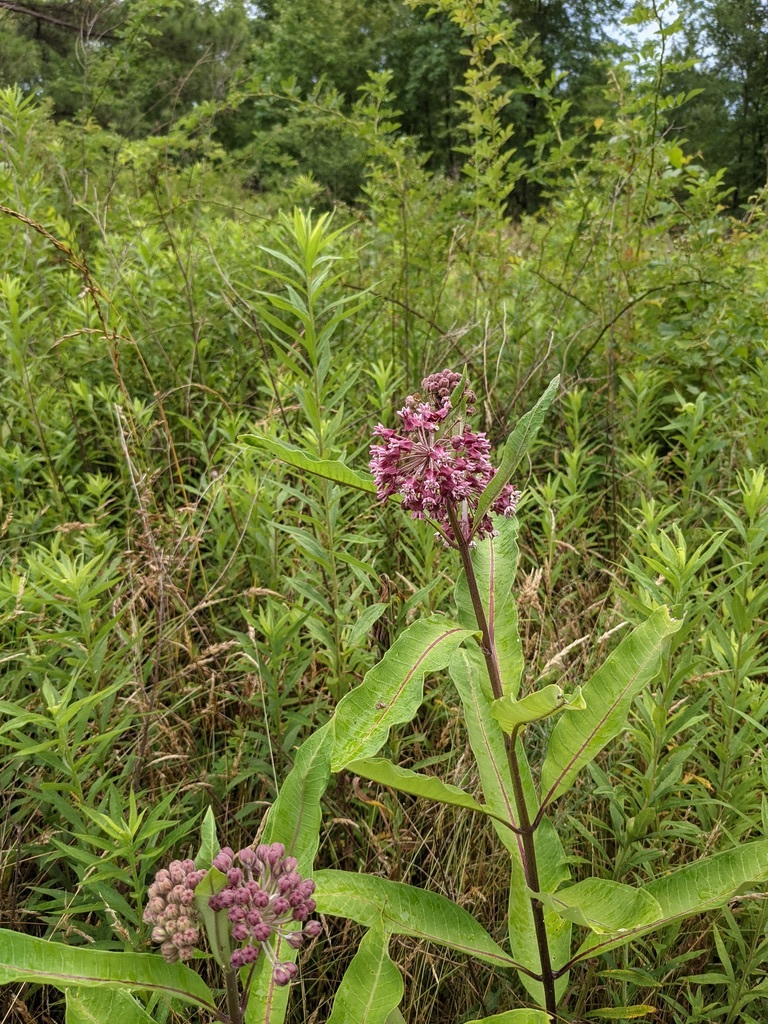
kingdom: Plantae
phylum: Tracheophyta
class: Magnoliopsida
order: Gentianales
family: Apocynaceae
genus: Asclepias
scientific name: Asclepias syriaca
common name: Common milkweed
